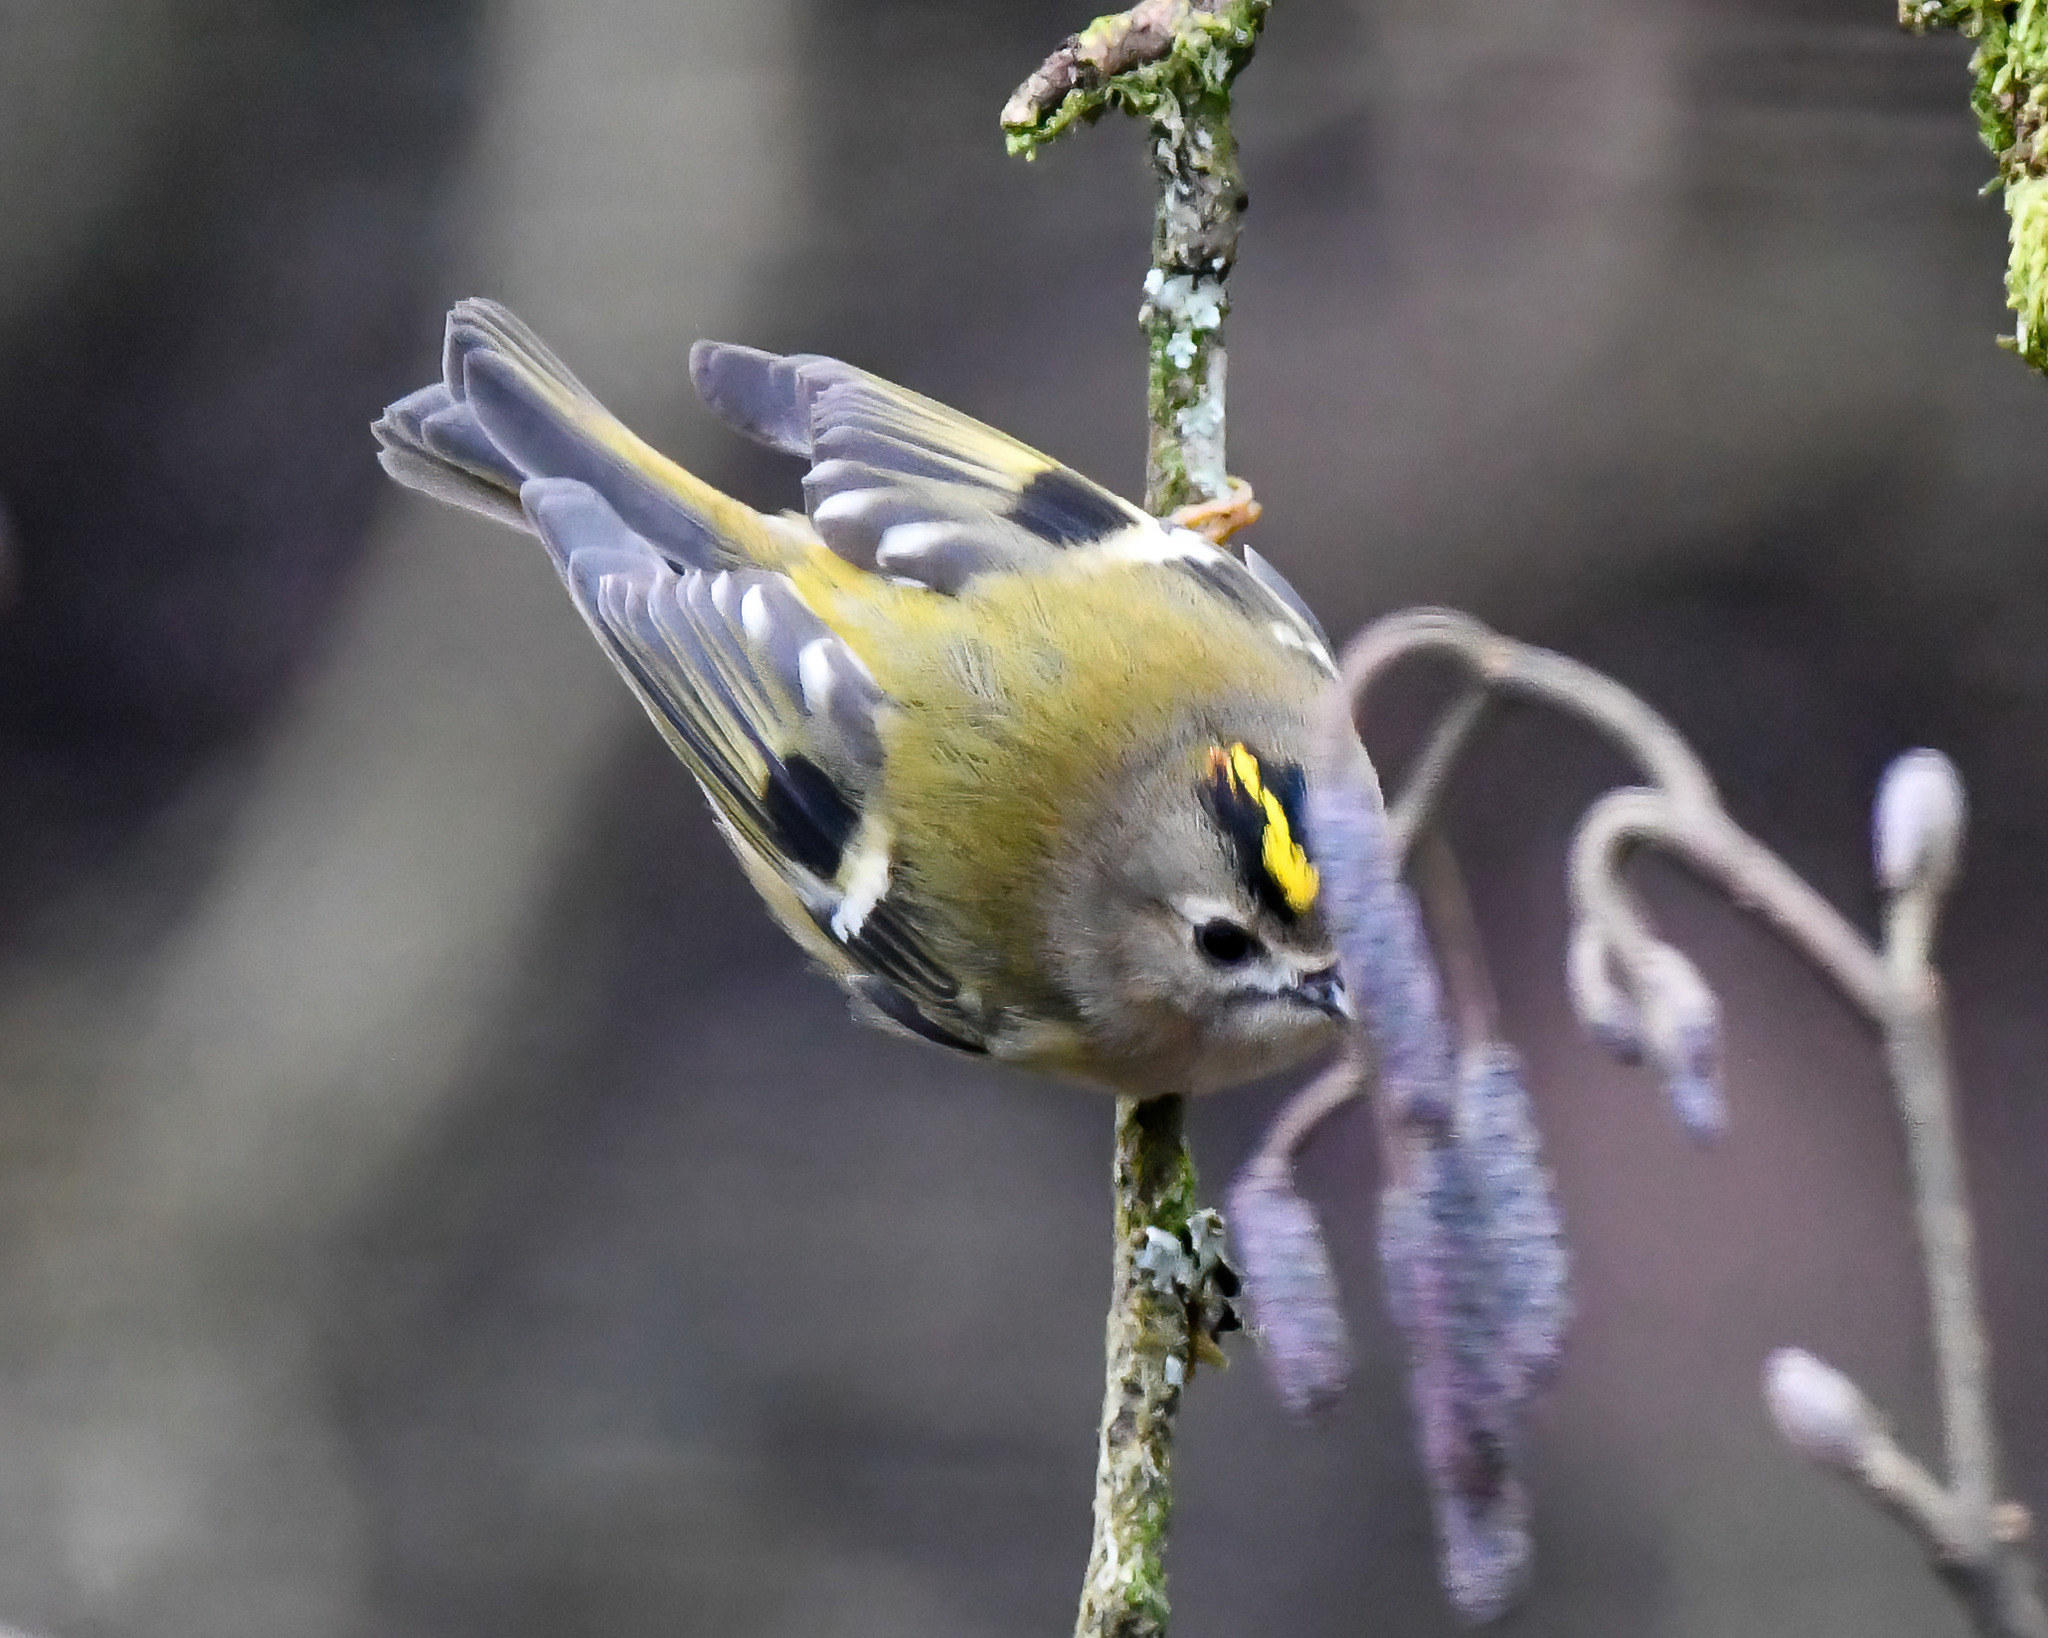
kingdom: Animalia
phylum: Chordata
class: Aves
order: Passeriformes
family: Regulidae
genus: Regulus
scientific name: Regulus regulus
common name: Goldcrest
